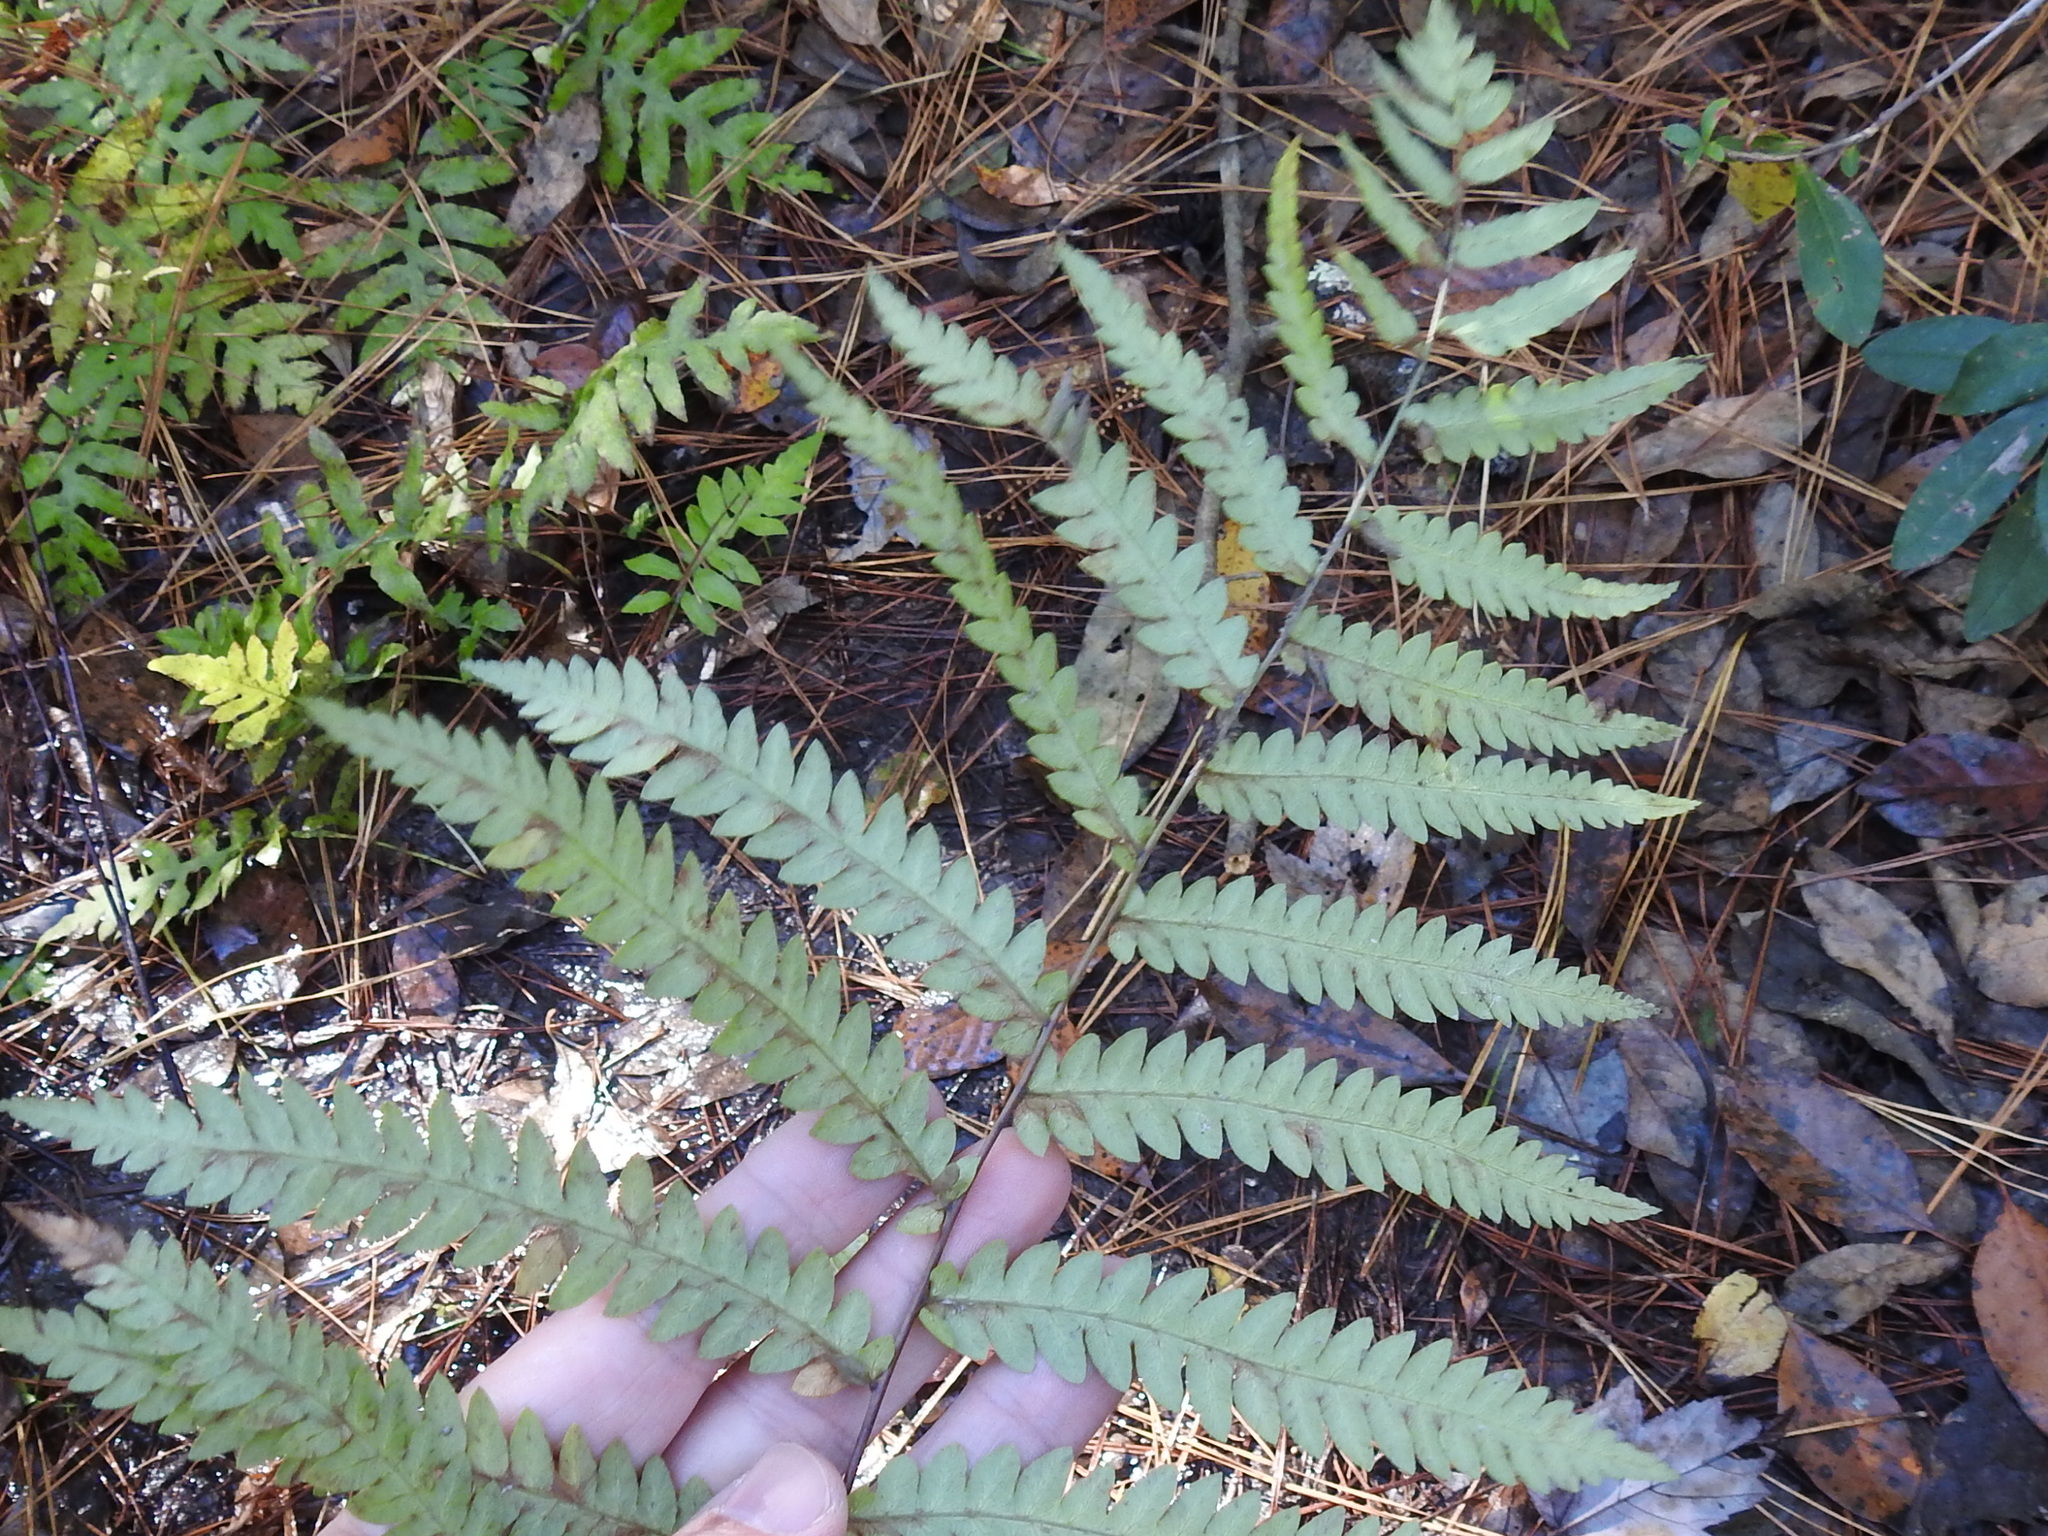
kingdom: Plantae
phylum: Tracheophyta
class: Polypodiopsida
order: Polypodiales
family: Blechnaceae
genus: Anchistea
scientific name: Anchistea virginica
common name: Virginia chain fern
